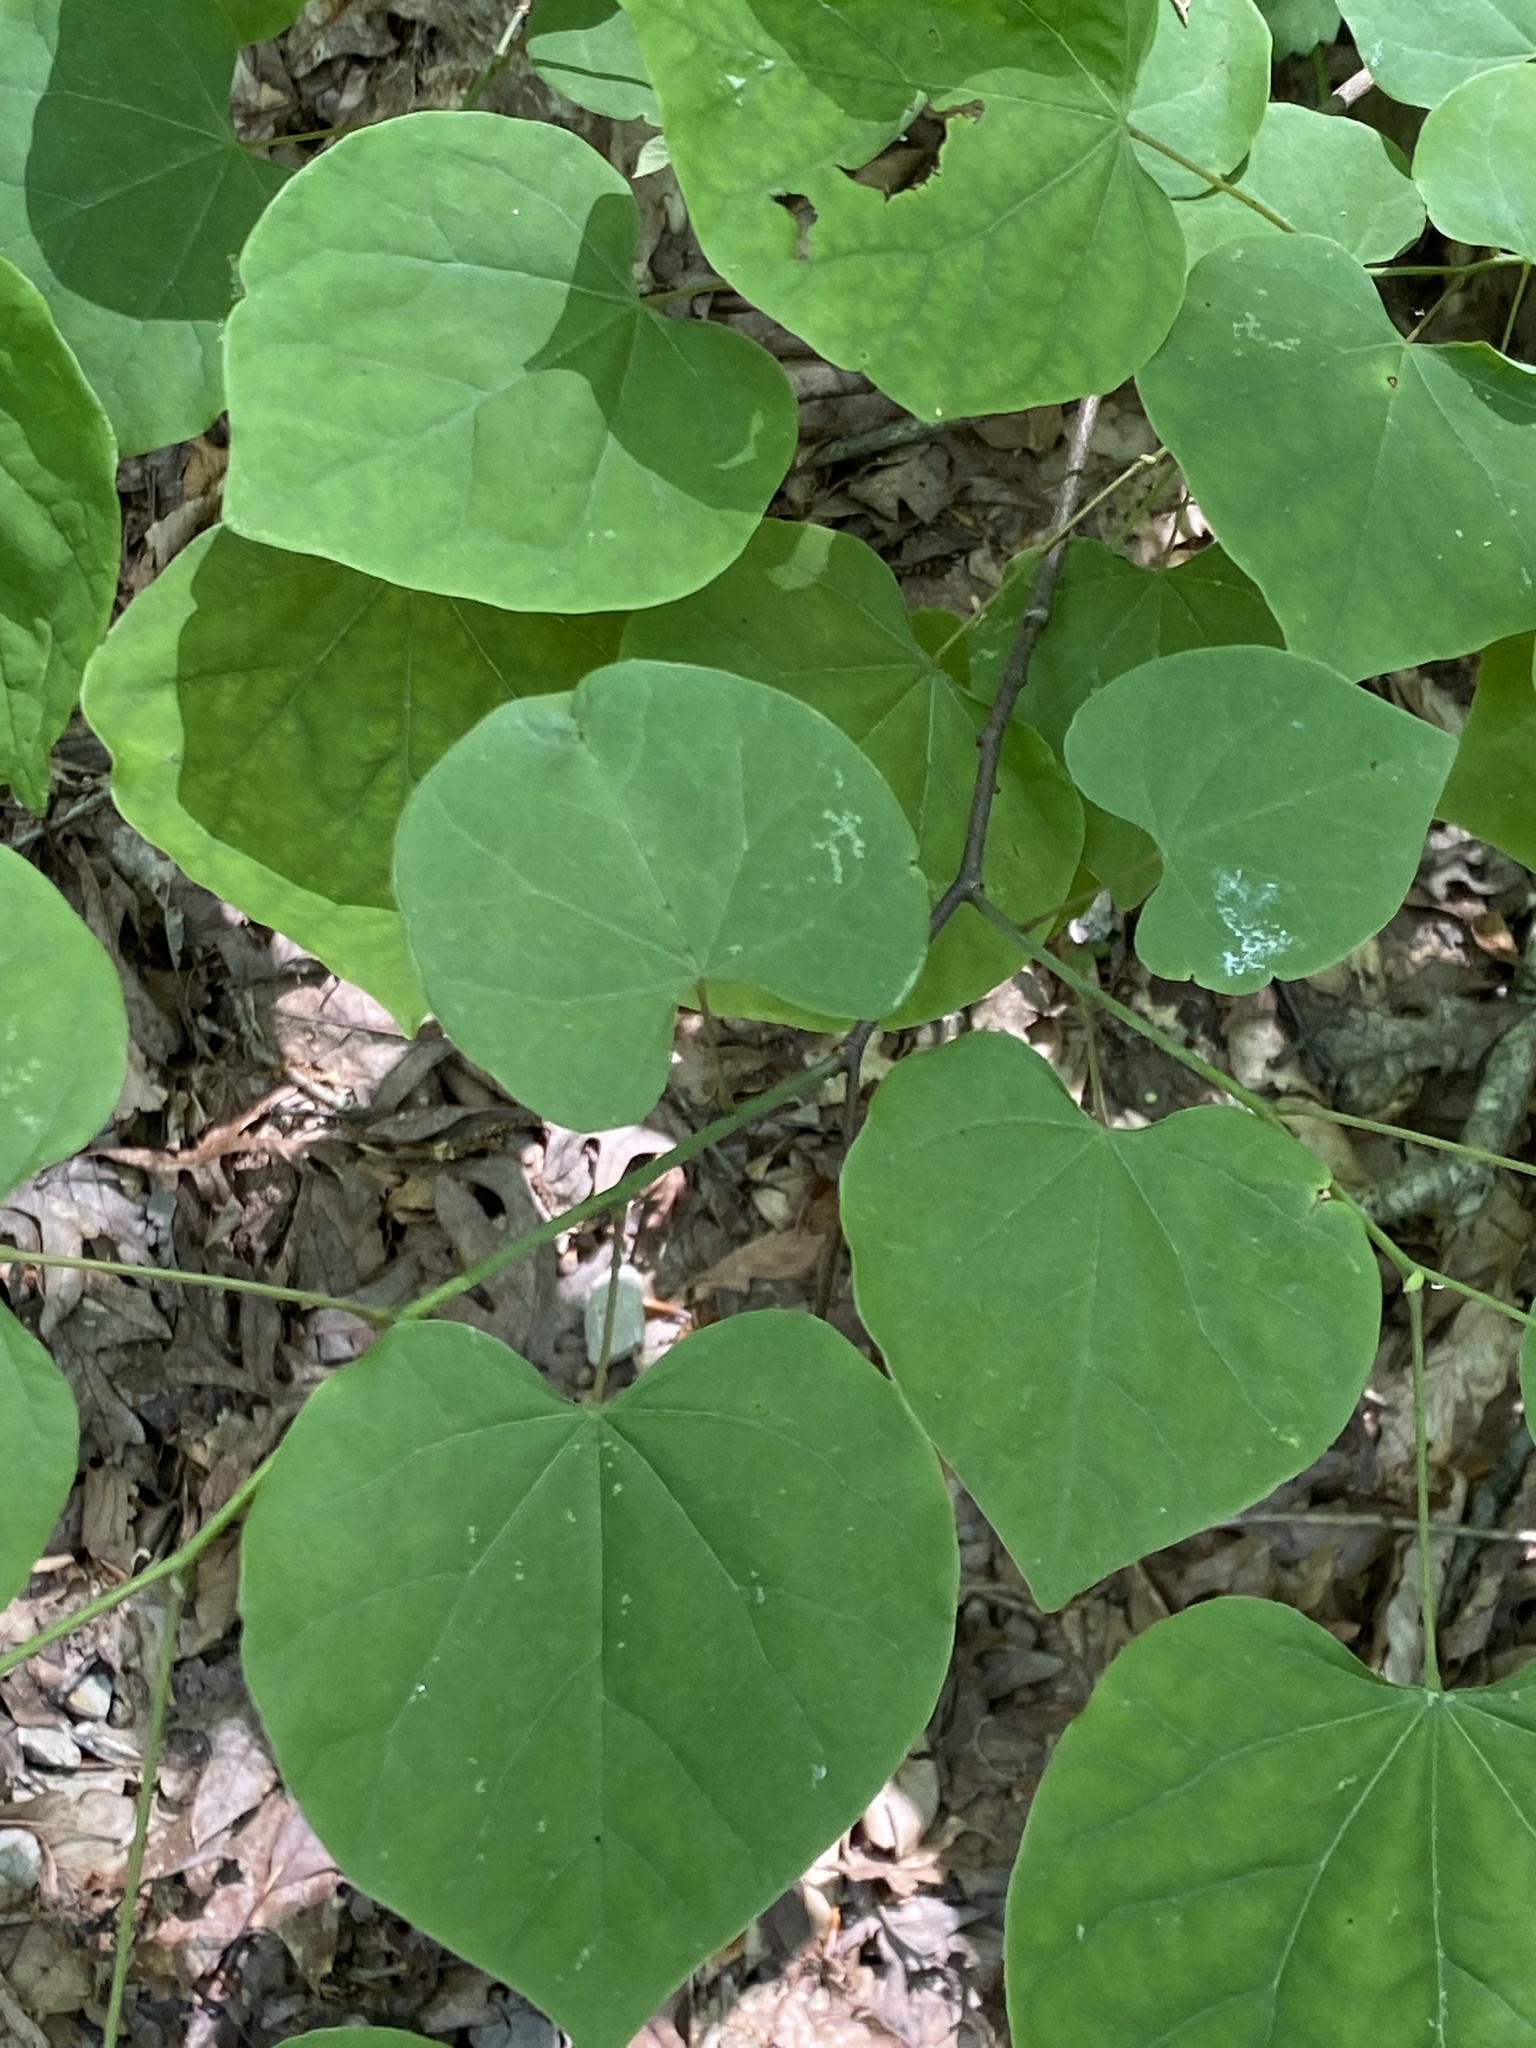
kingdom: Plantae
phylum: Tracheophyta
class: Magnoliopsida
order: Fabales
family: Fabaceae
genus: Cercis
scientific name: Cercis canadensis
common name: Eastern redbud
